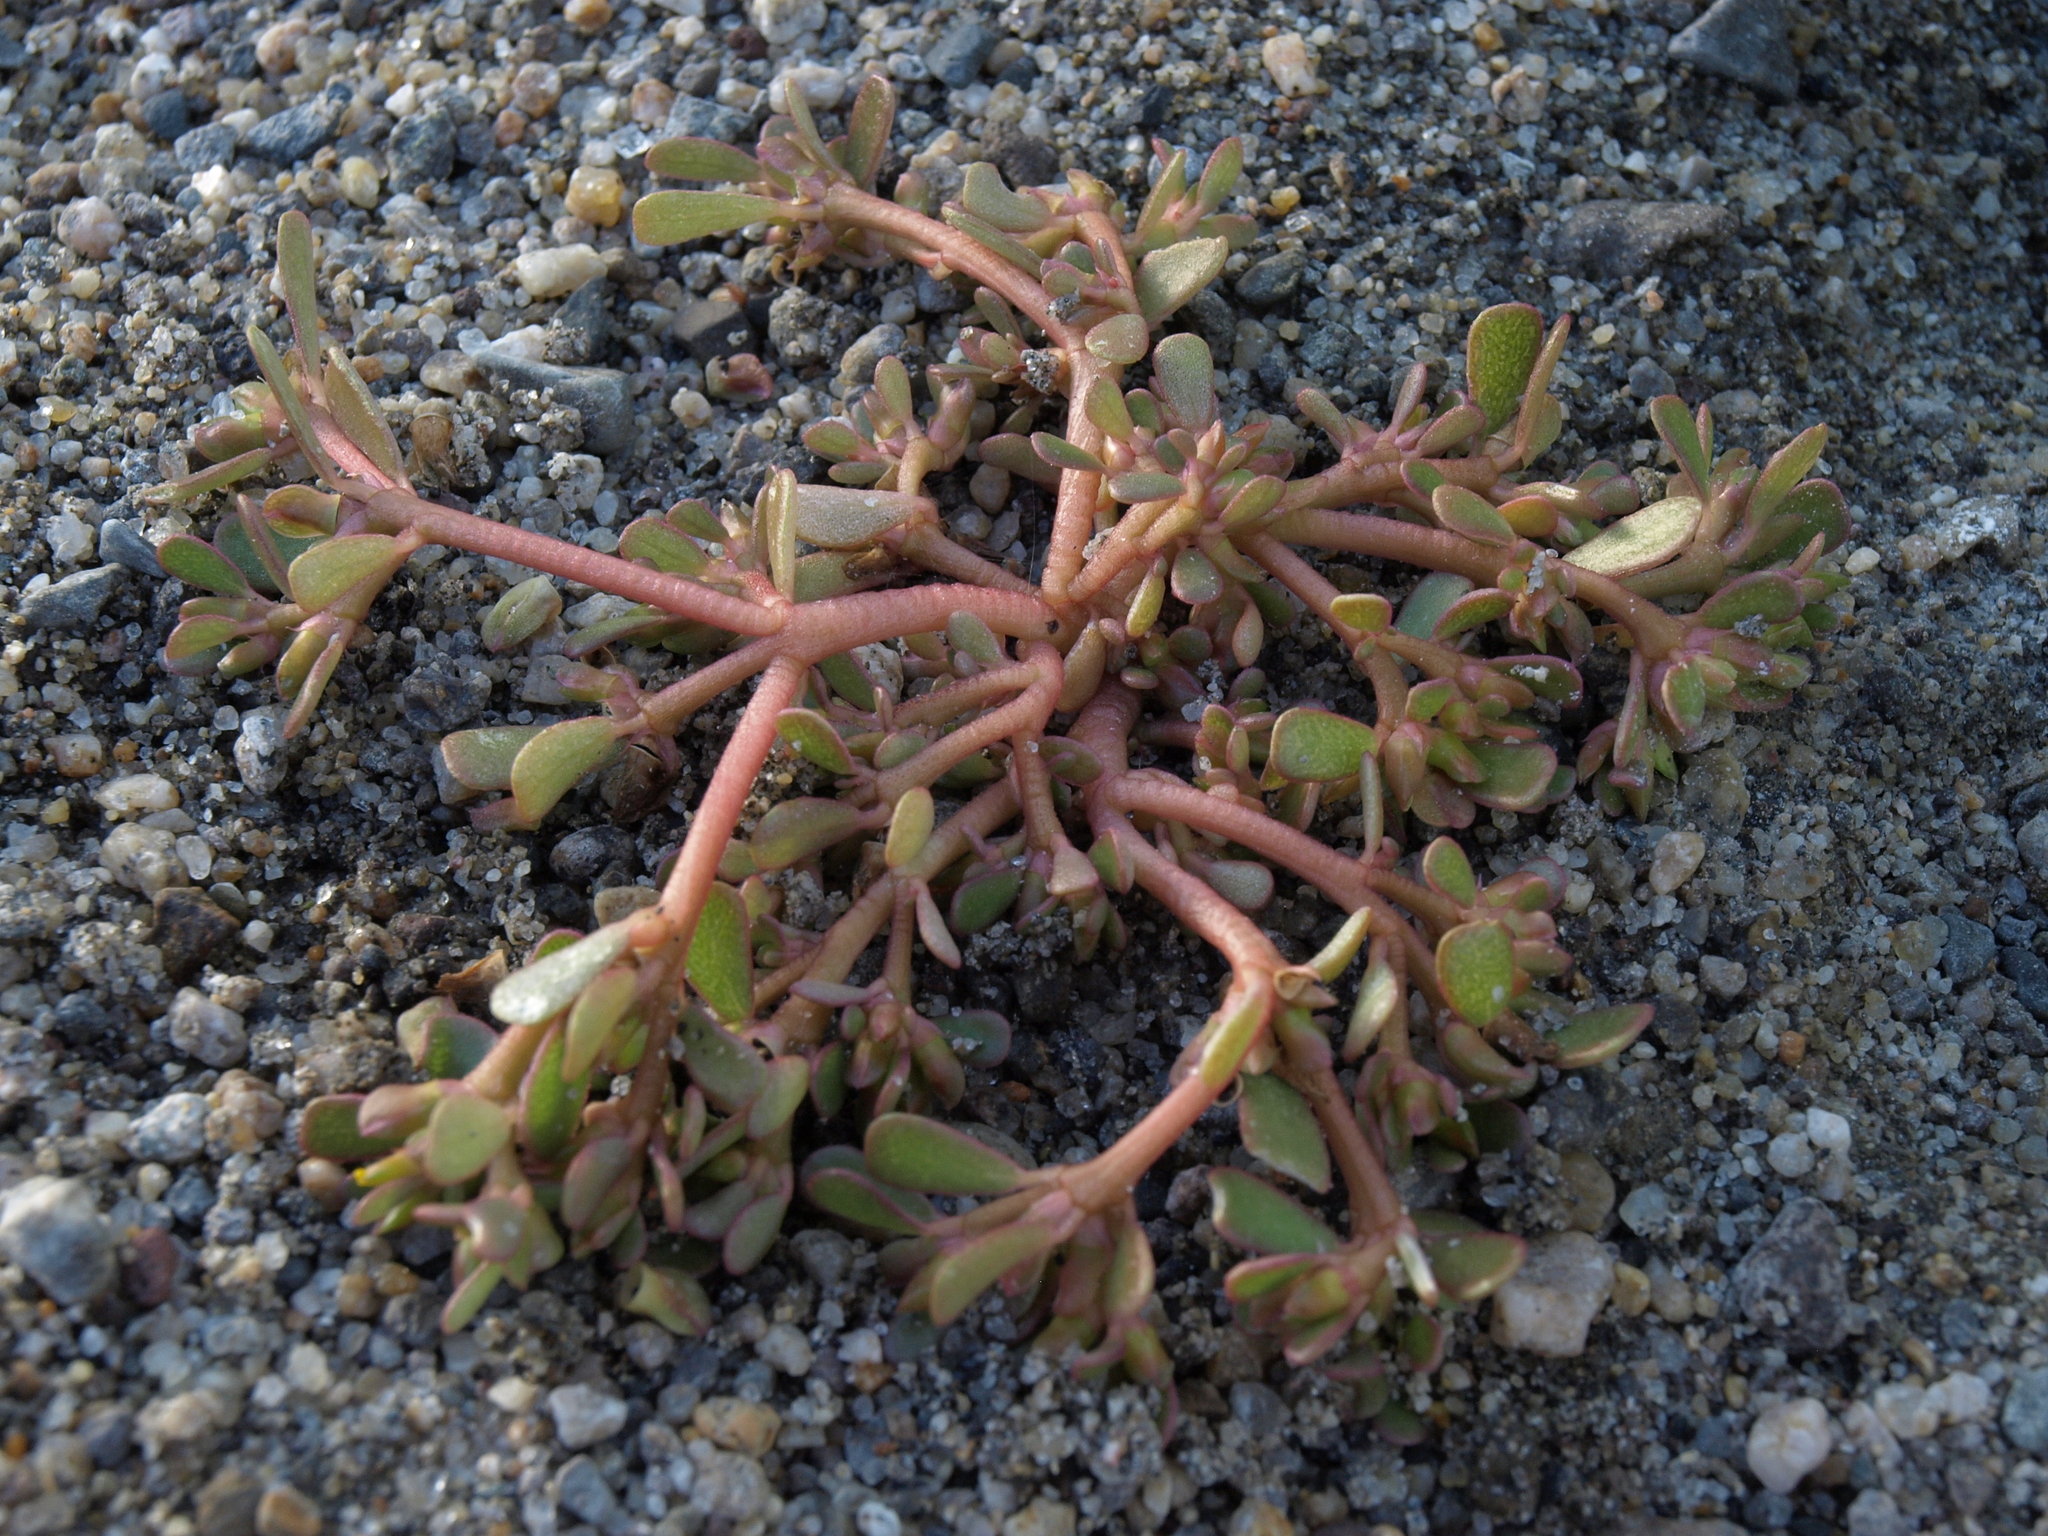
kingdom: Plantae
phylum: Tracheophyta
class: Magnoliopsida
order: Caryophyllales
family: Portulacaceae
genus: Portulaca
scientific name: Portulaca oleracea
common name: Common purslane
